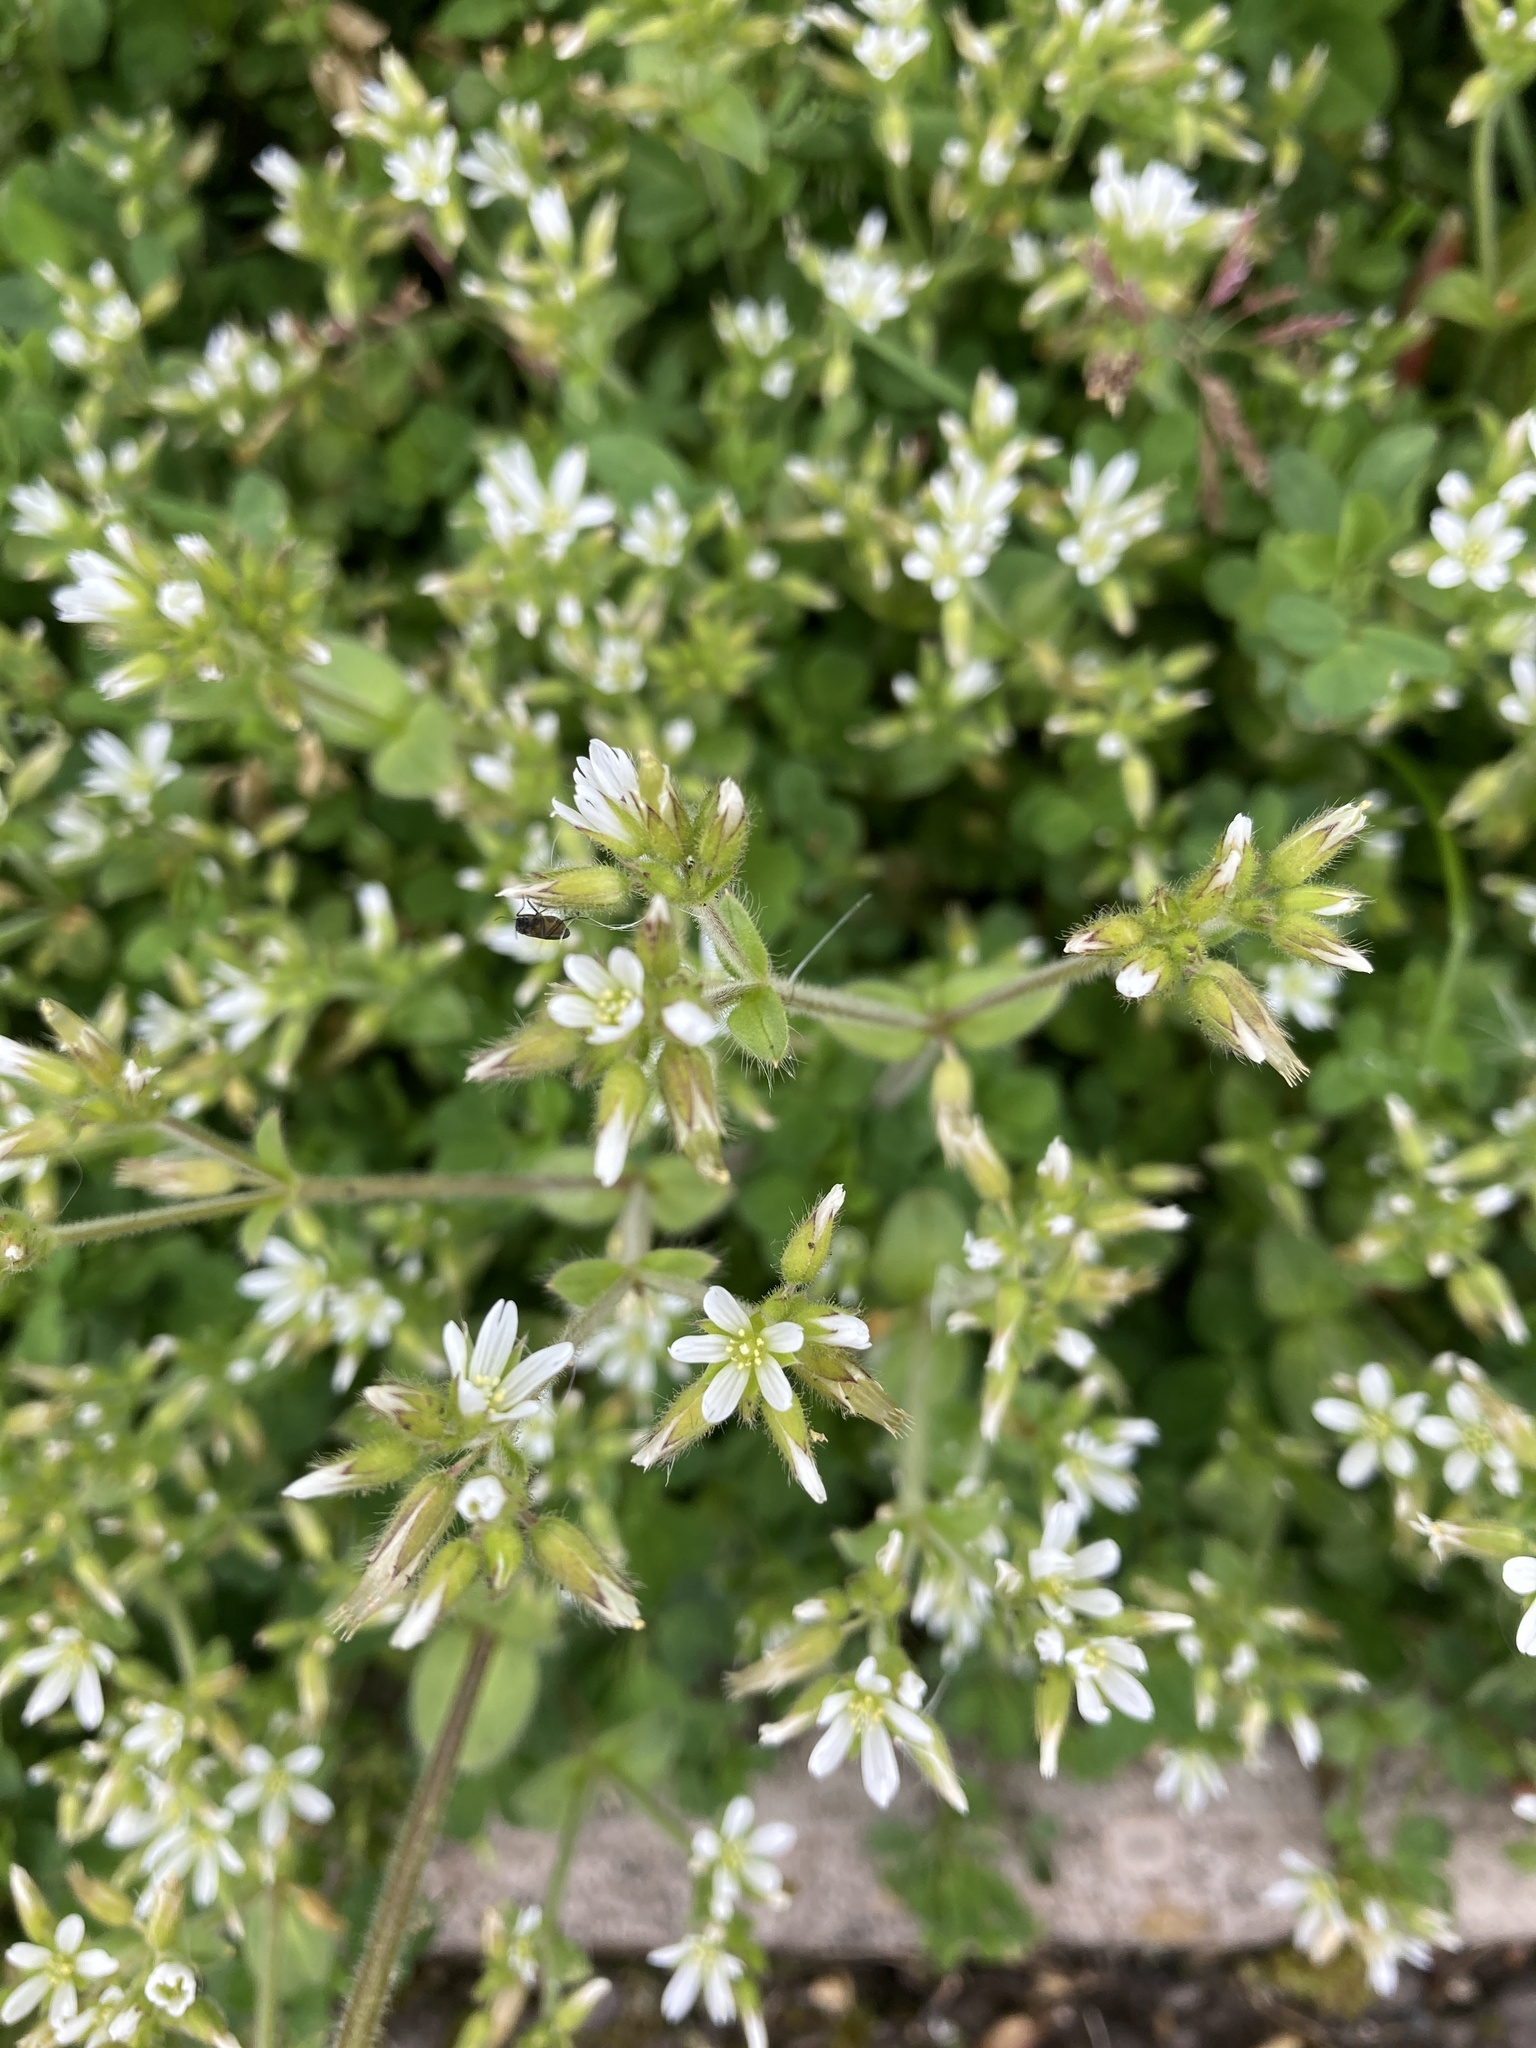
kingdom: Plantae
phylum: Tracheophyta
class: Magnoliopsida
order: Caryophyllales
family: Caryophyllaceae
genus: Cerastium
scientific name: Cerastium glomeratum
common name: Sticky chickweed
